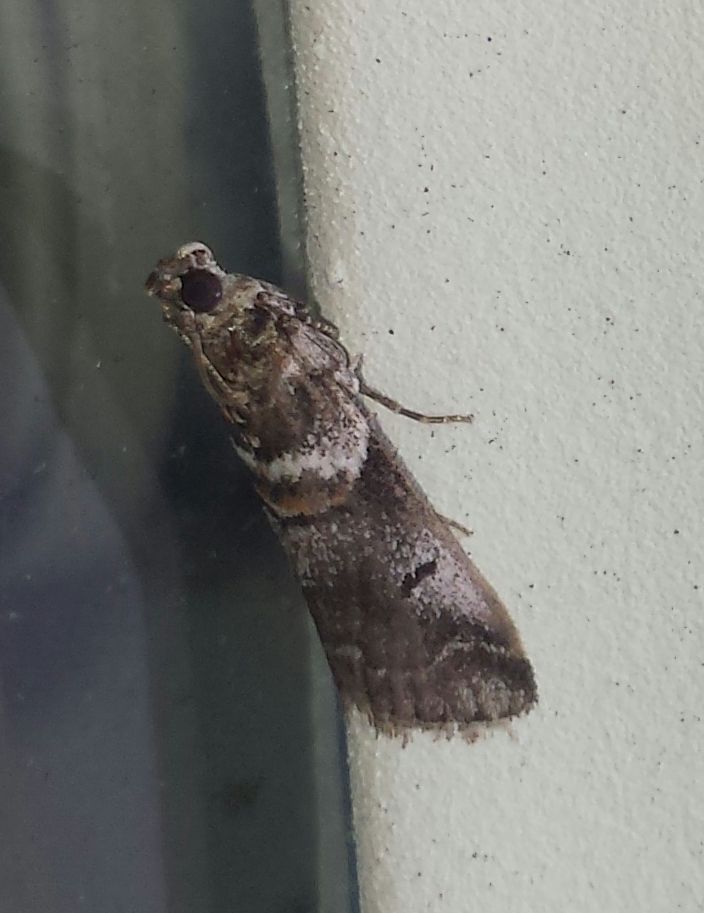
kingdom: Animalia
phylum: Arthropoda
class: Insecta
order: Lepidoptera
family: Pyralidae
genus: Acrobasis
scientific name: Acrobasis tricolorella
